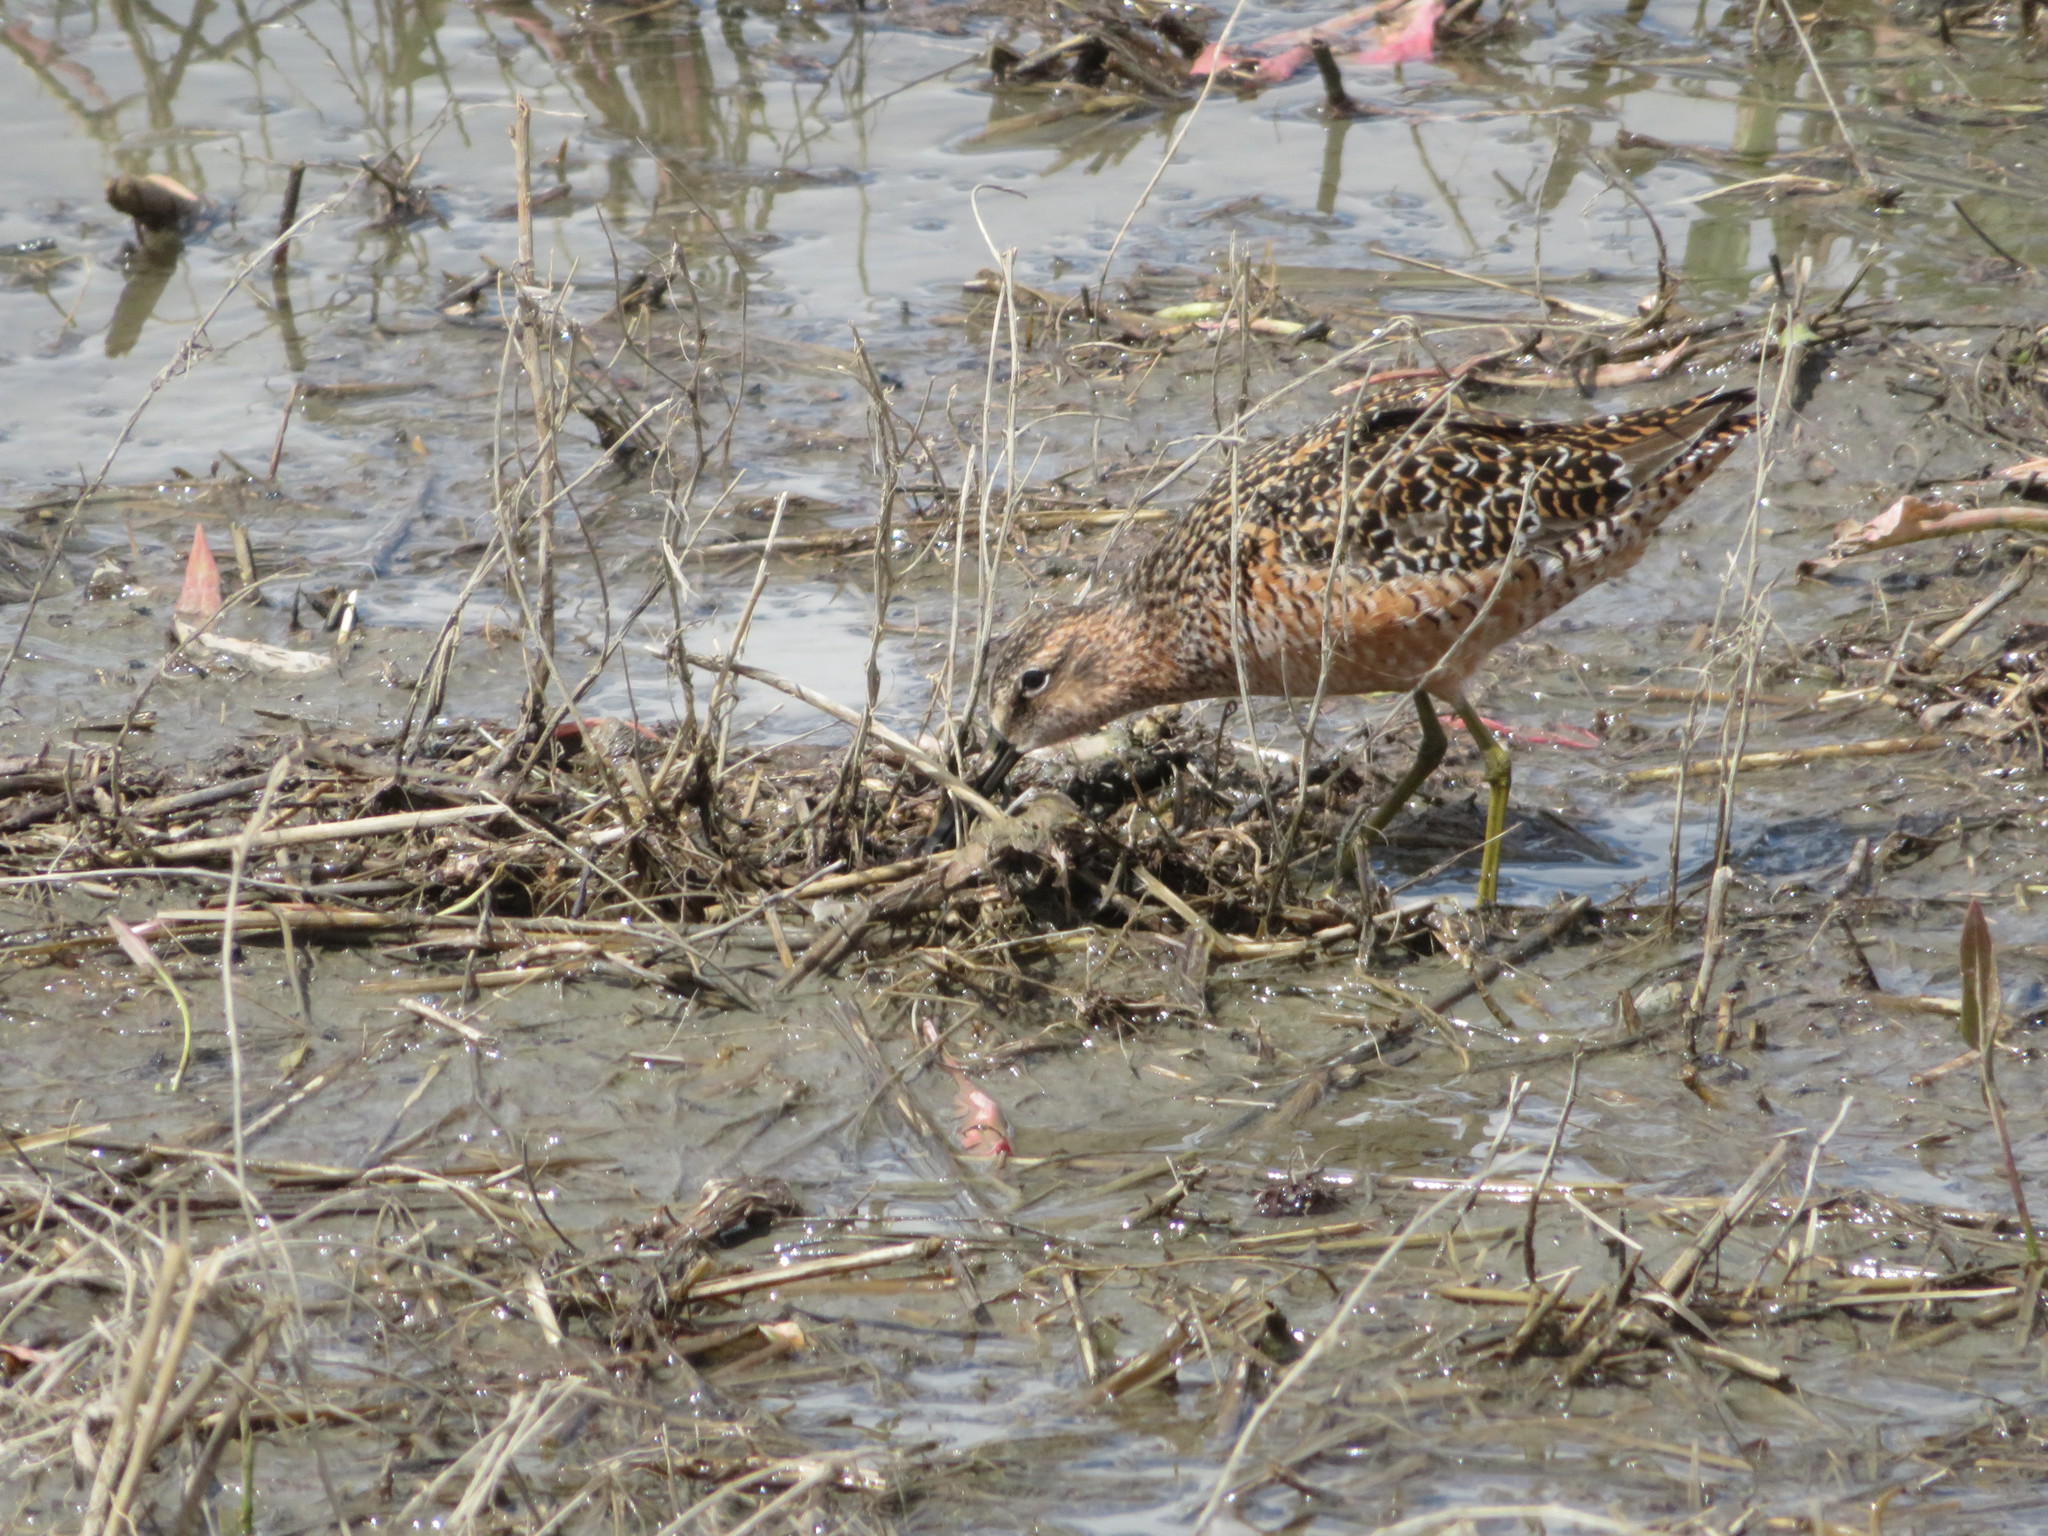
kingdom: Animalia
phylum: Chordata
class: Aves
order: Charadriiformes
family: Scolopacidae
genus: Limnodromus
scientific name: Limnodromus scolopaceus
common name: Long-billed dowitcher
